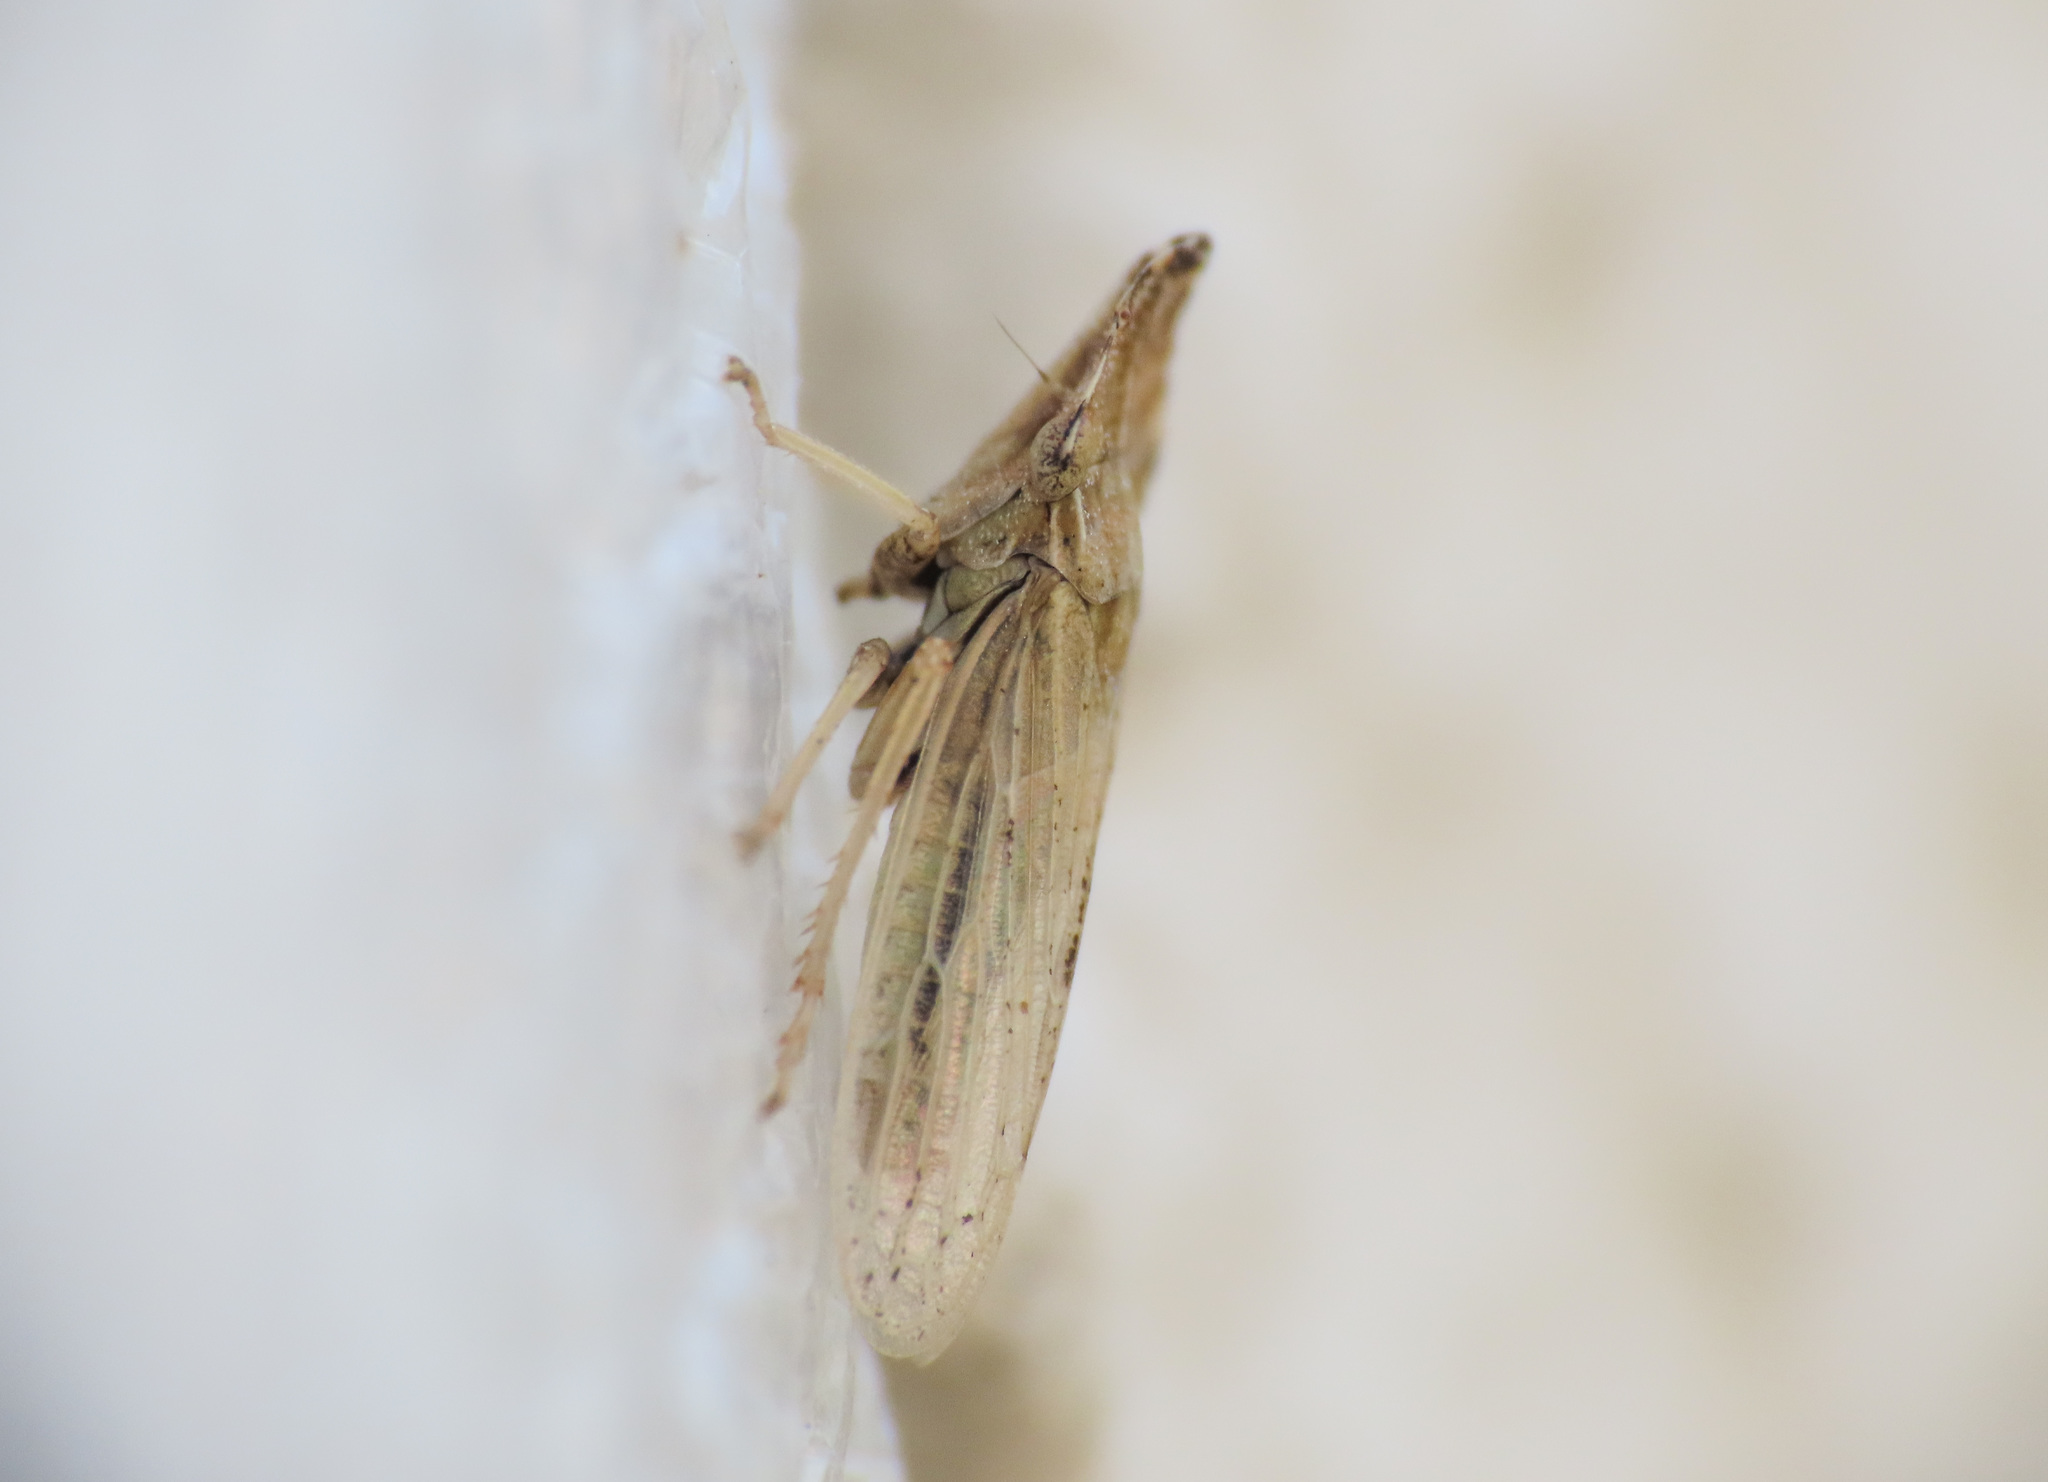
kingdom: Animalia
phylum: Arthropoda
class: Insecta
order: Hemiptera
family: Cicadellidae
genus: Eupelix
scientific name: Eupelix cuspidata
